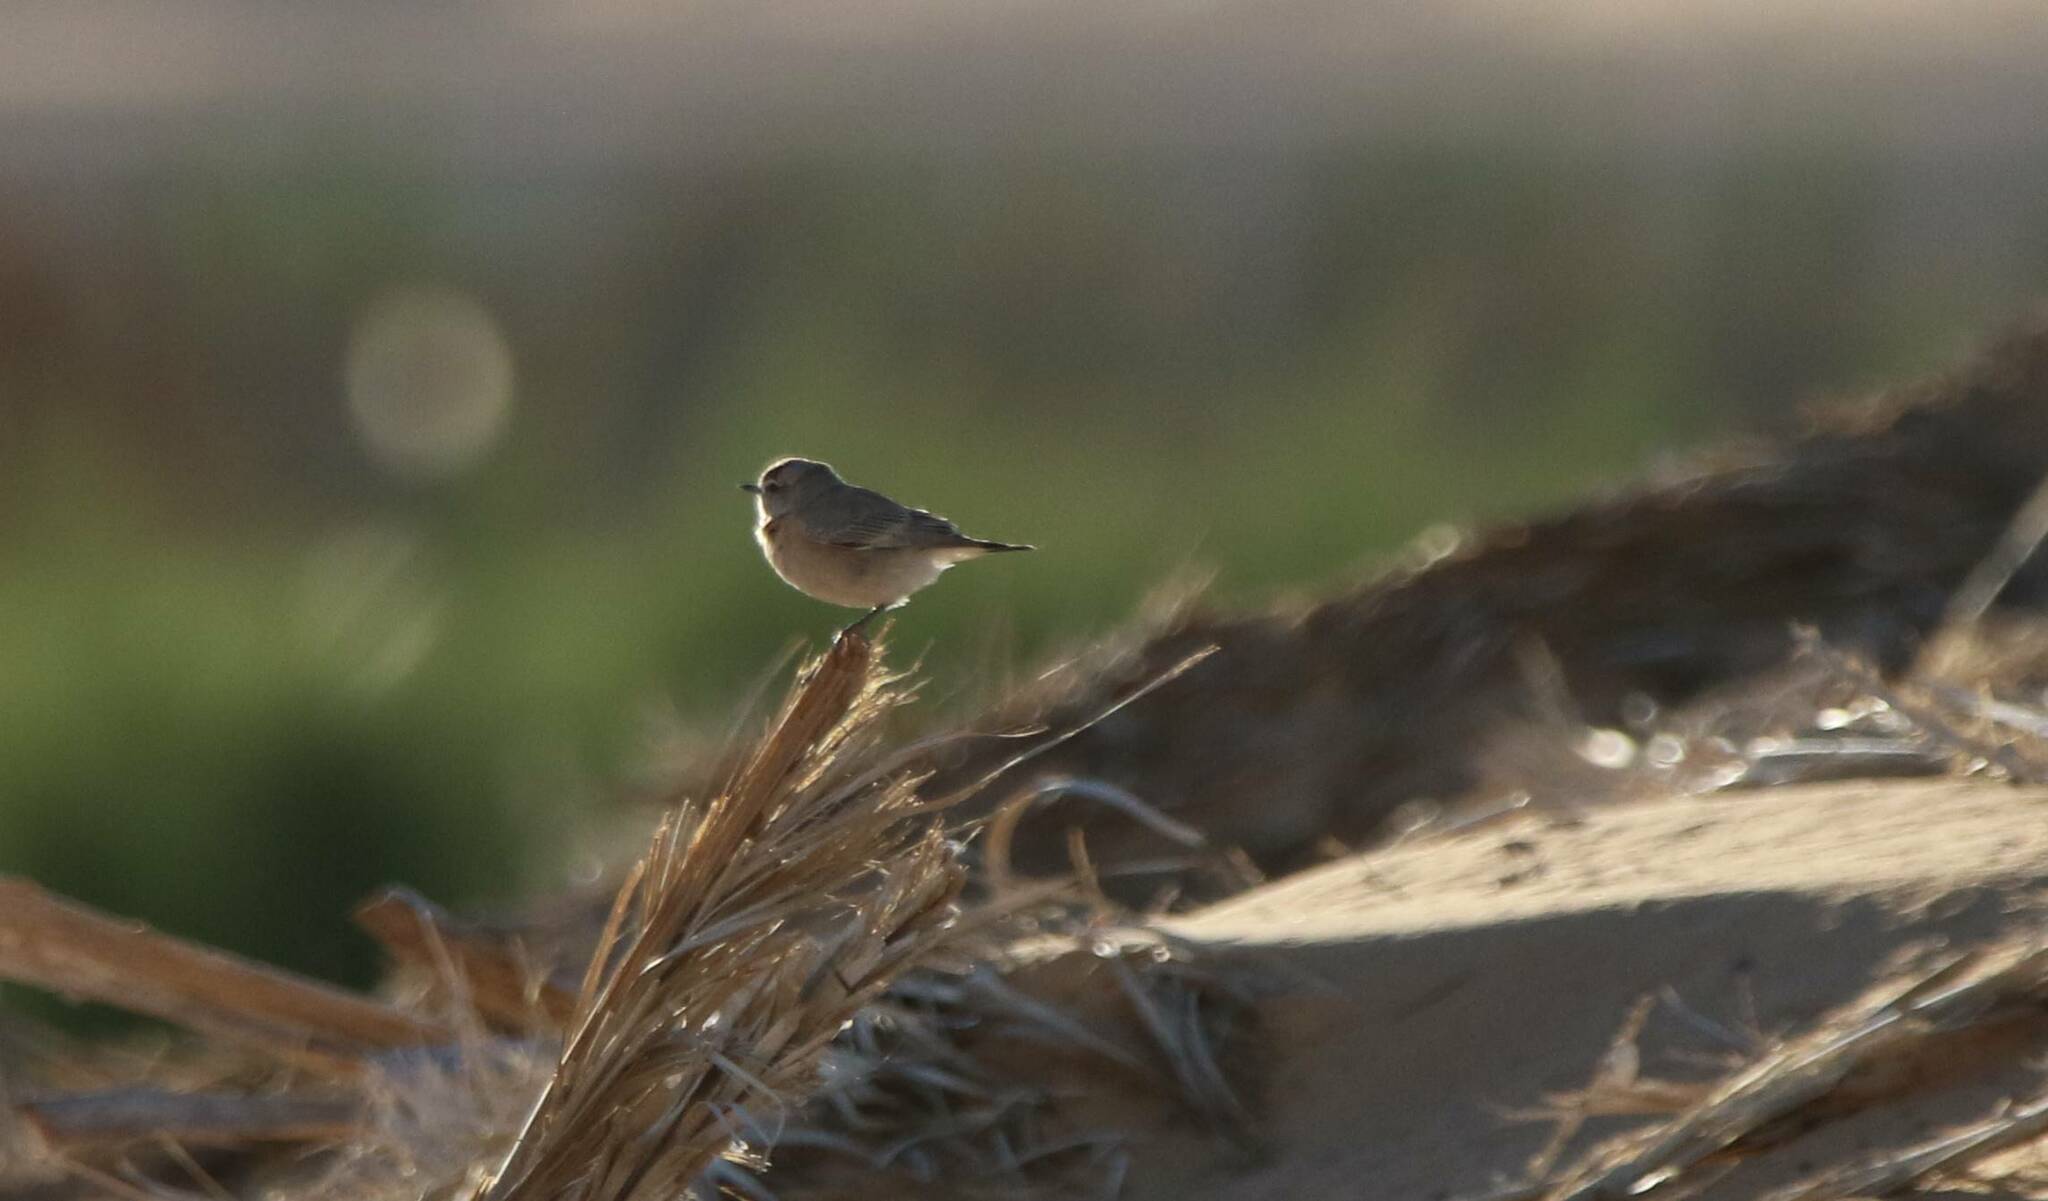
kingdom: Animalia
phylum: Chordata
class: Aves
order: Passeriformes
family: Muscicapidae
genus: Oenanthe
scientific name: Oenanthe isabellina
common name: Isabelline wheatear
